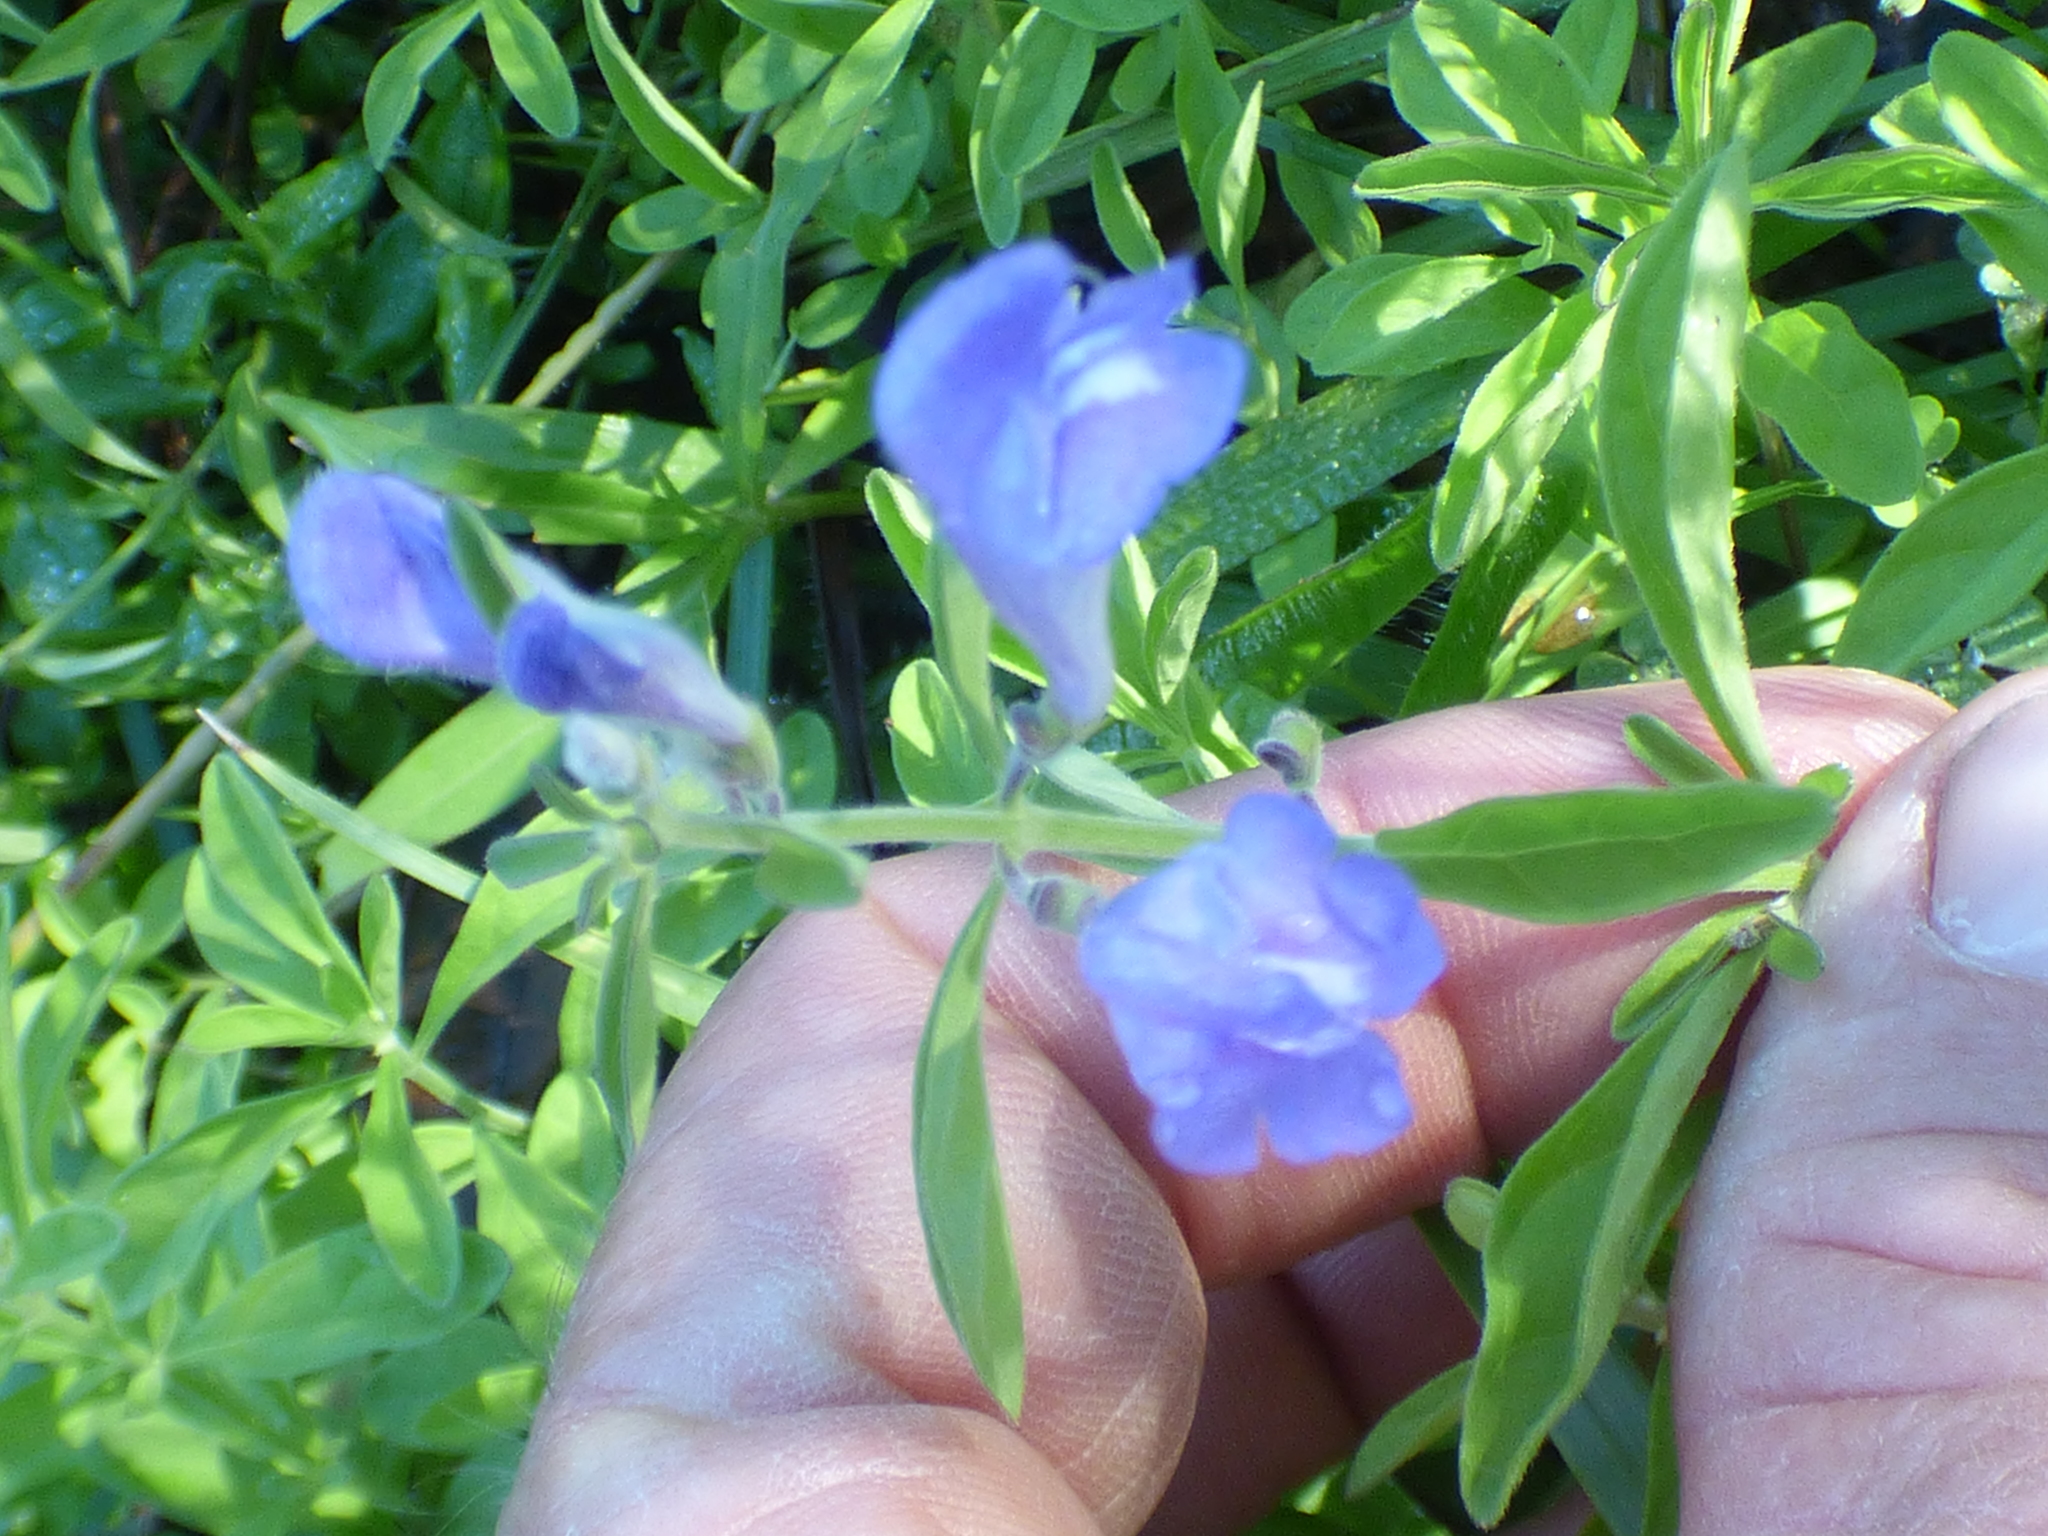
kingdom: Plantae
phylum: Tracheophyta
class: Magnoliopsida
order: Lamiales
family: Lamiaceae
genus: Scutellaria
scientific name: Scutellaria integrifolia
